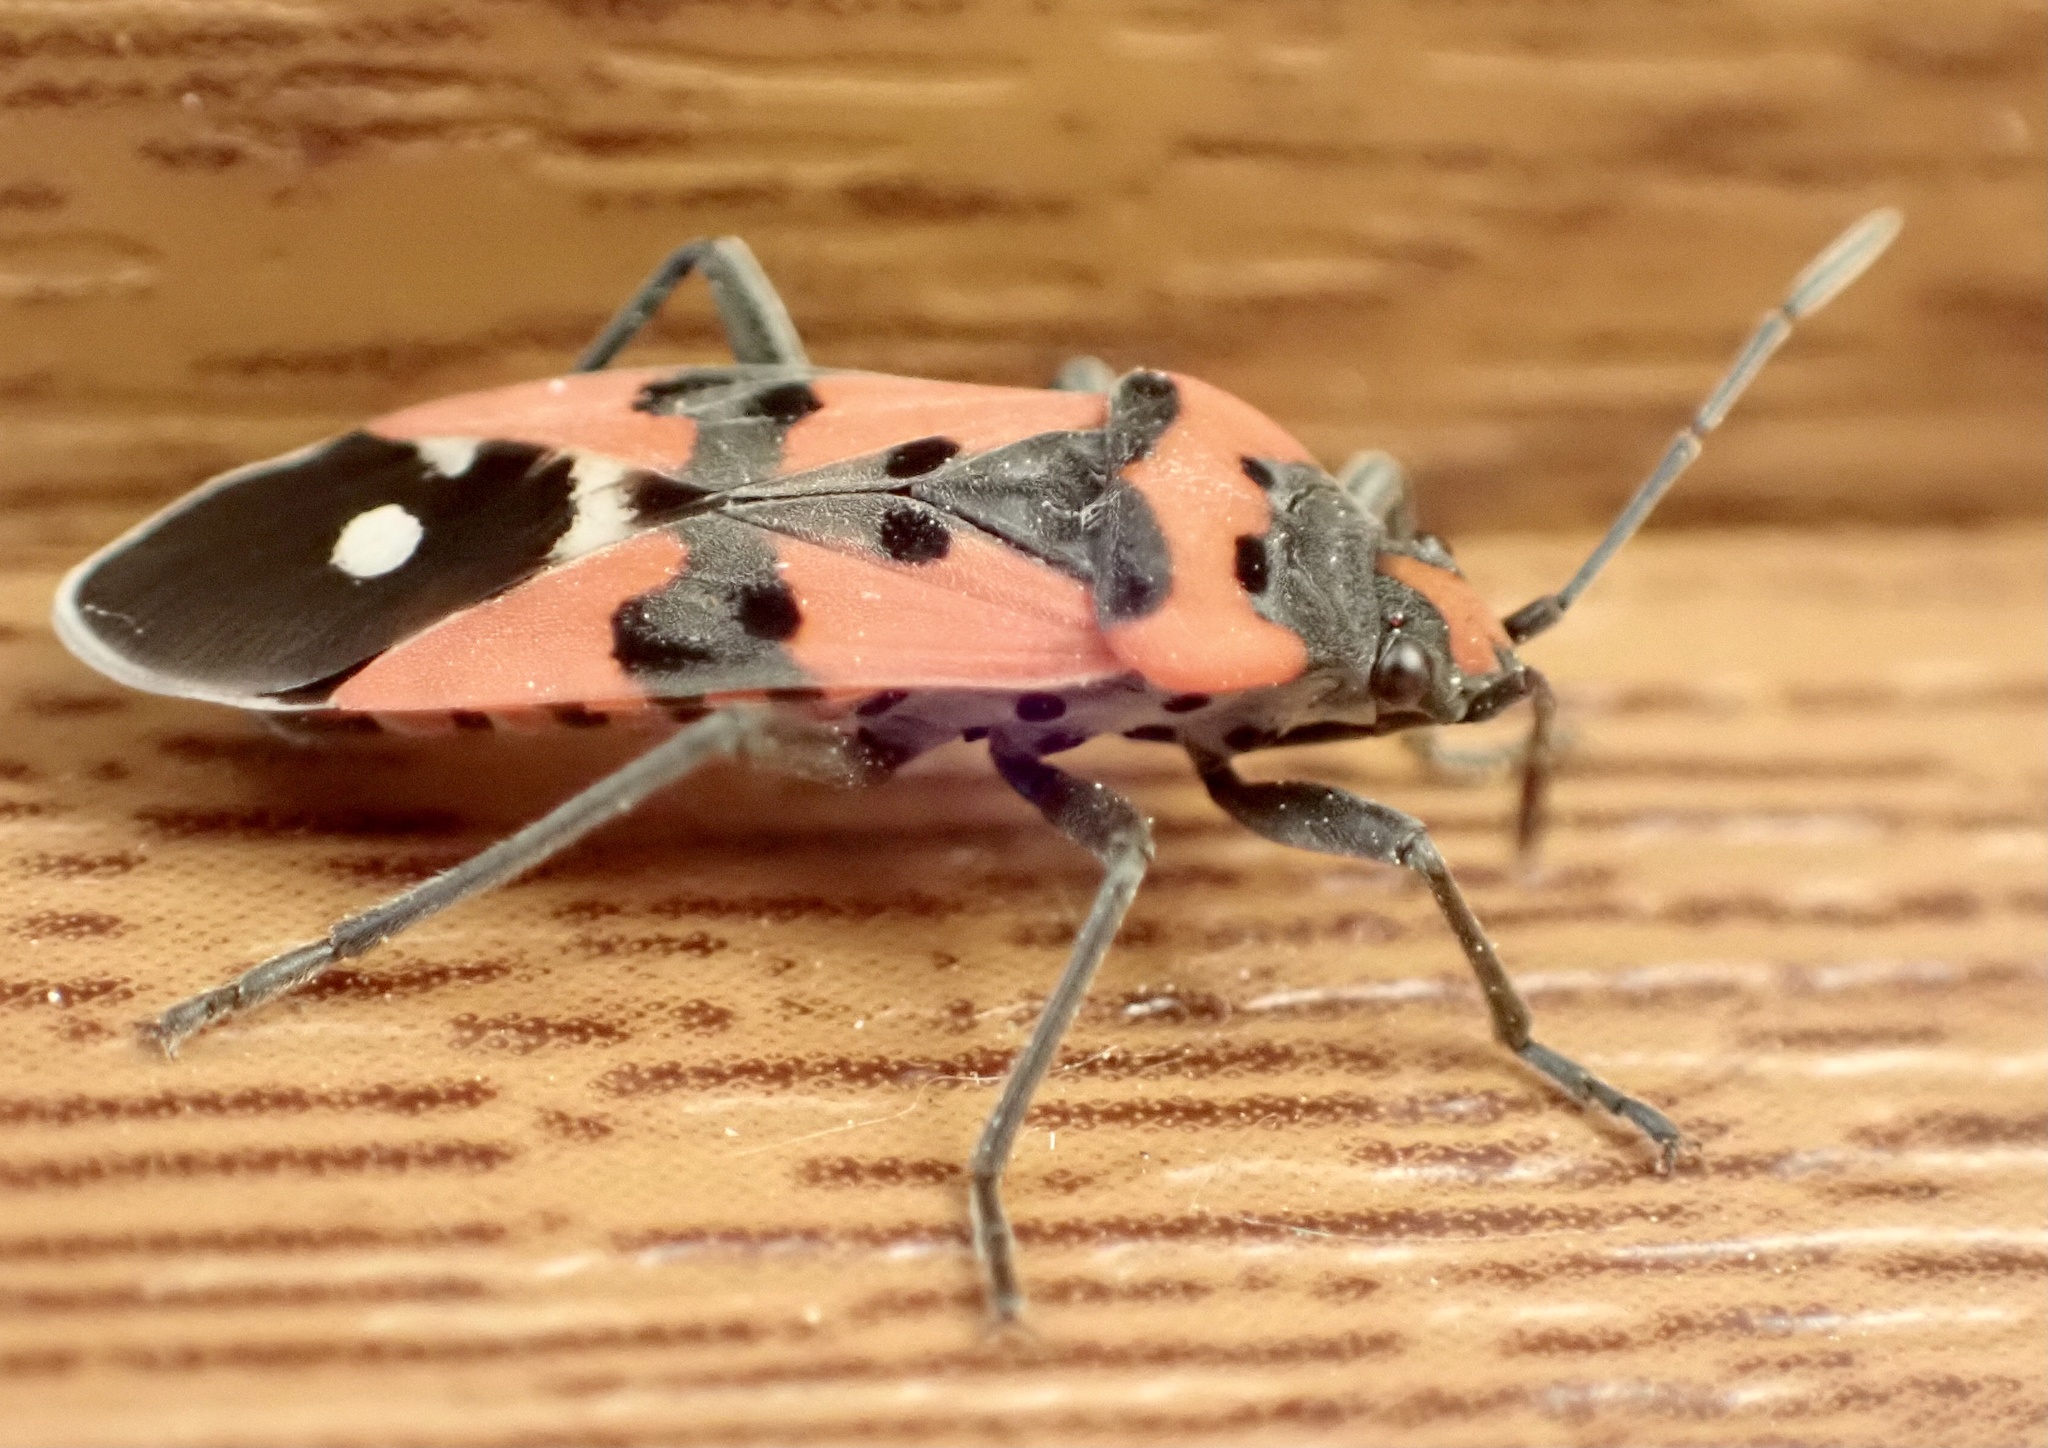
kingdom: Animalia
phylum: Arthropoda
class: Insecta
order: Hemiptera
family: Lygaeidae
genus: Lygaeus
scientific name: Lygaeus equestris
